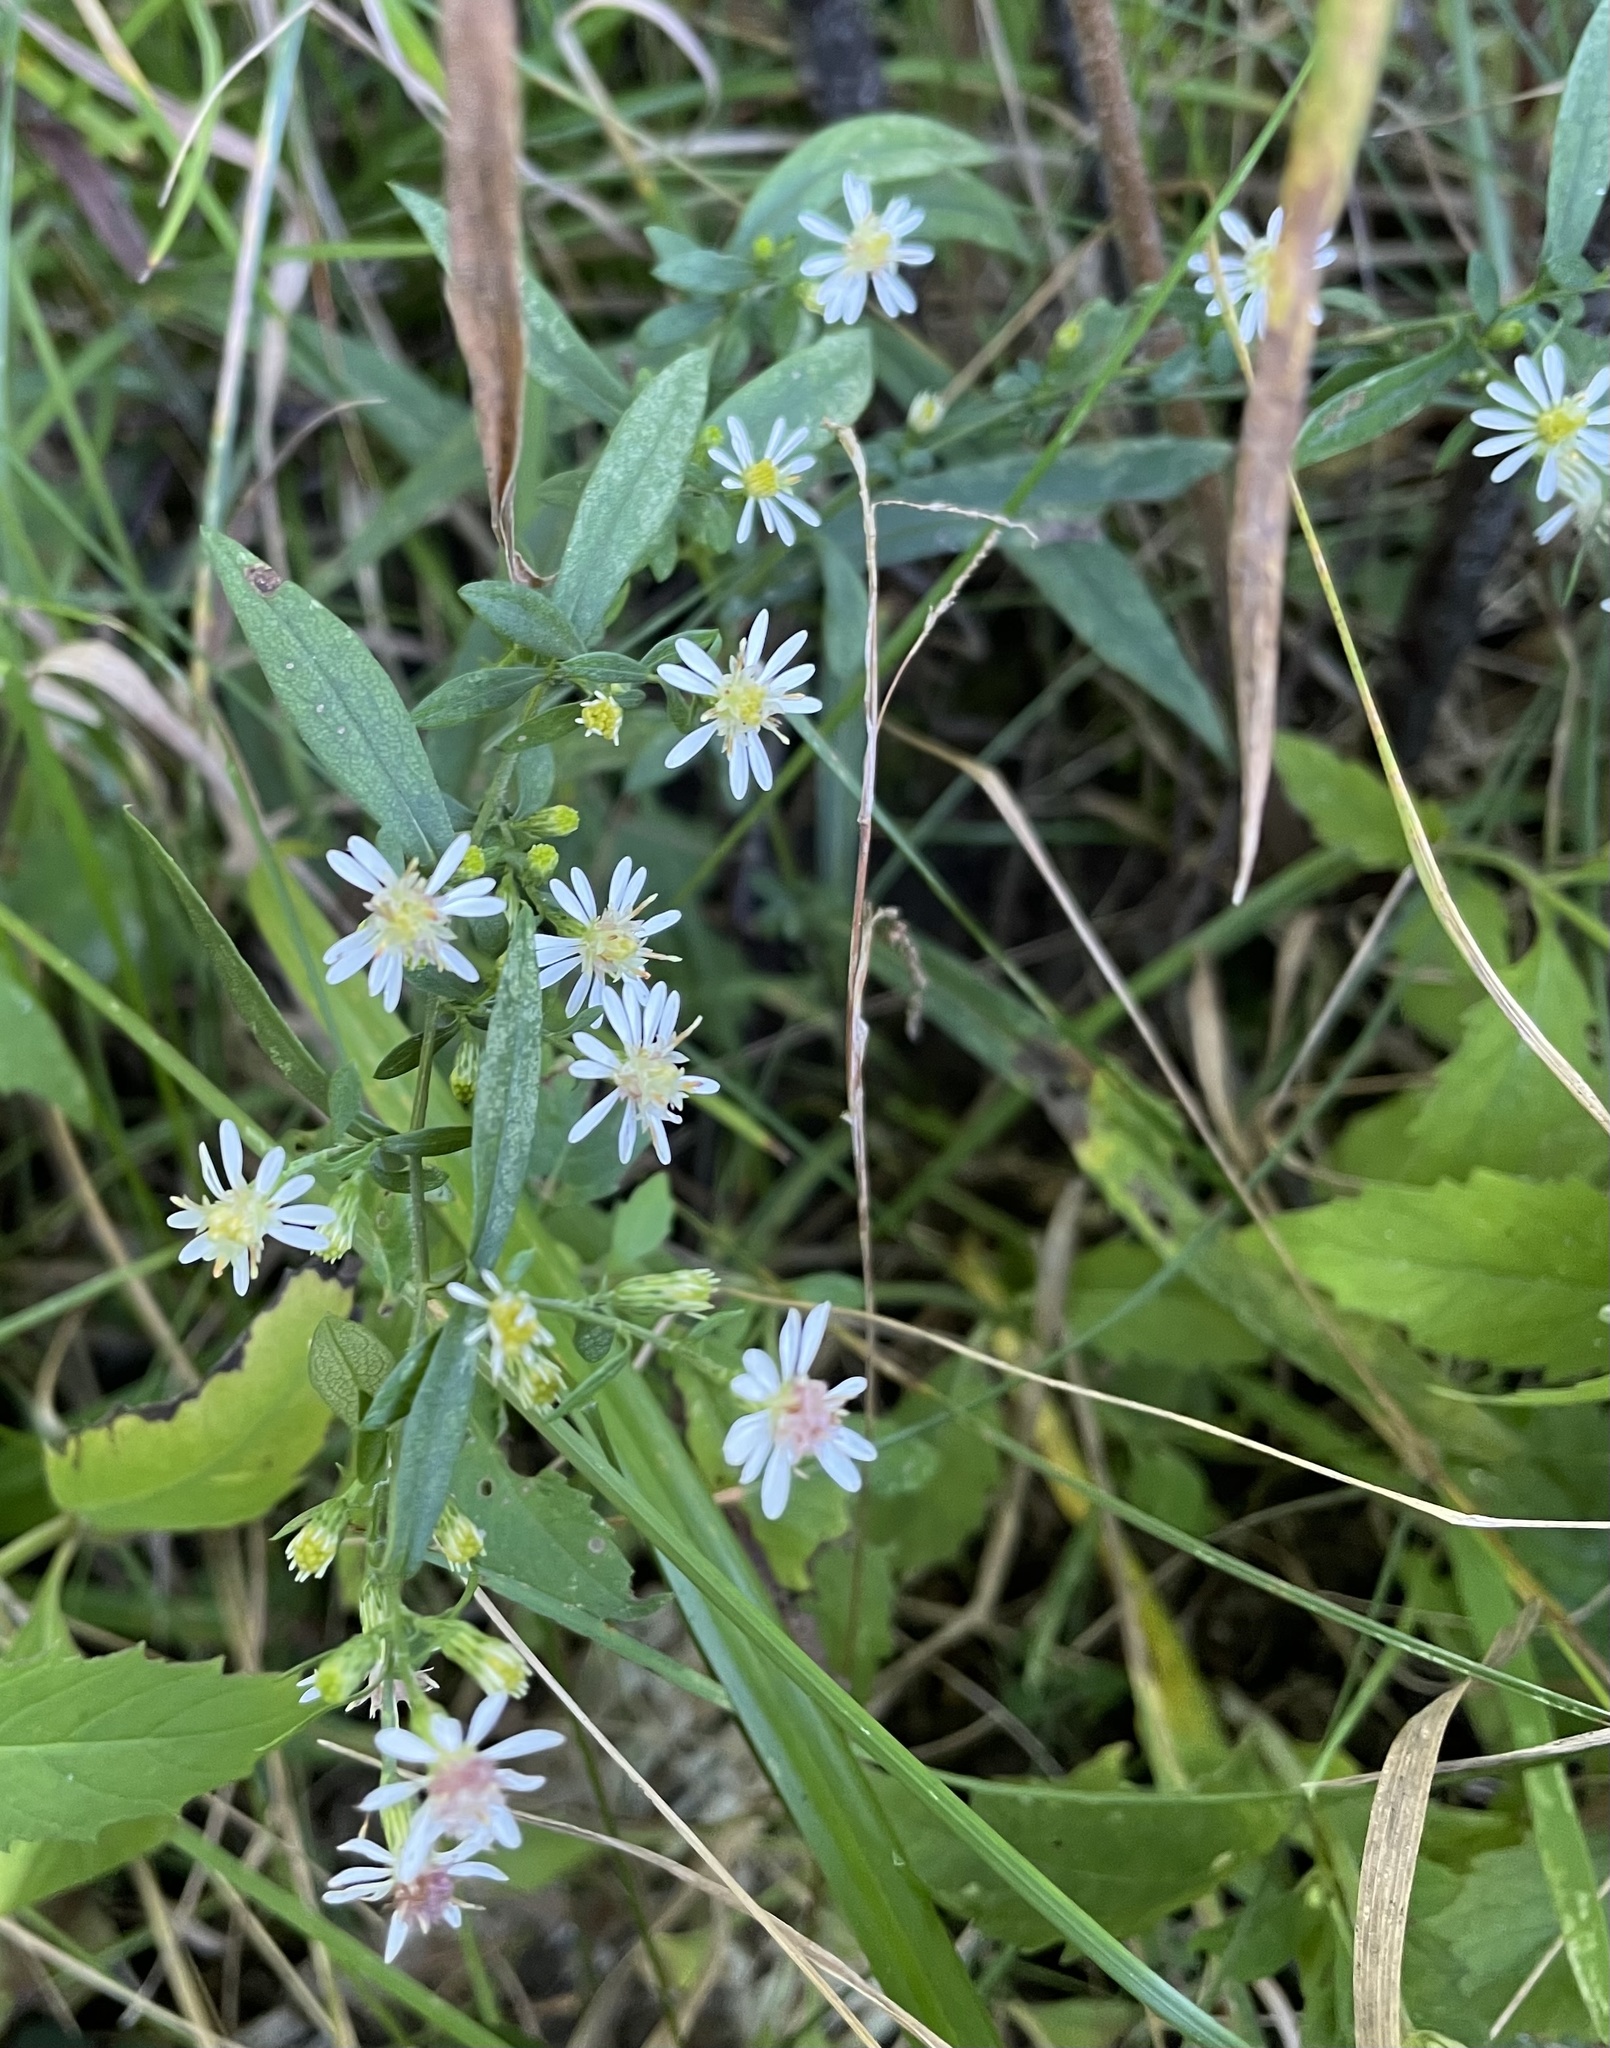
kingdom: Plantae
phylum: Tracheophyta
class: Magnoliopsida
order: Asterales
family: Asteraceae
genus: Symphyotrichum
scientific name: Symphyotrichum lateriflorum
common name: Calico aster
